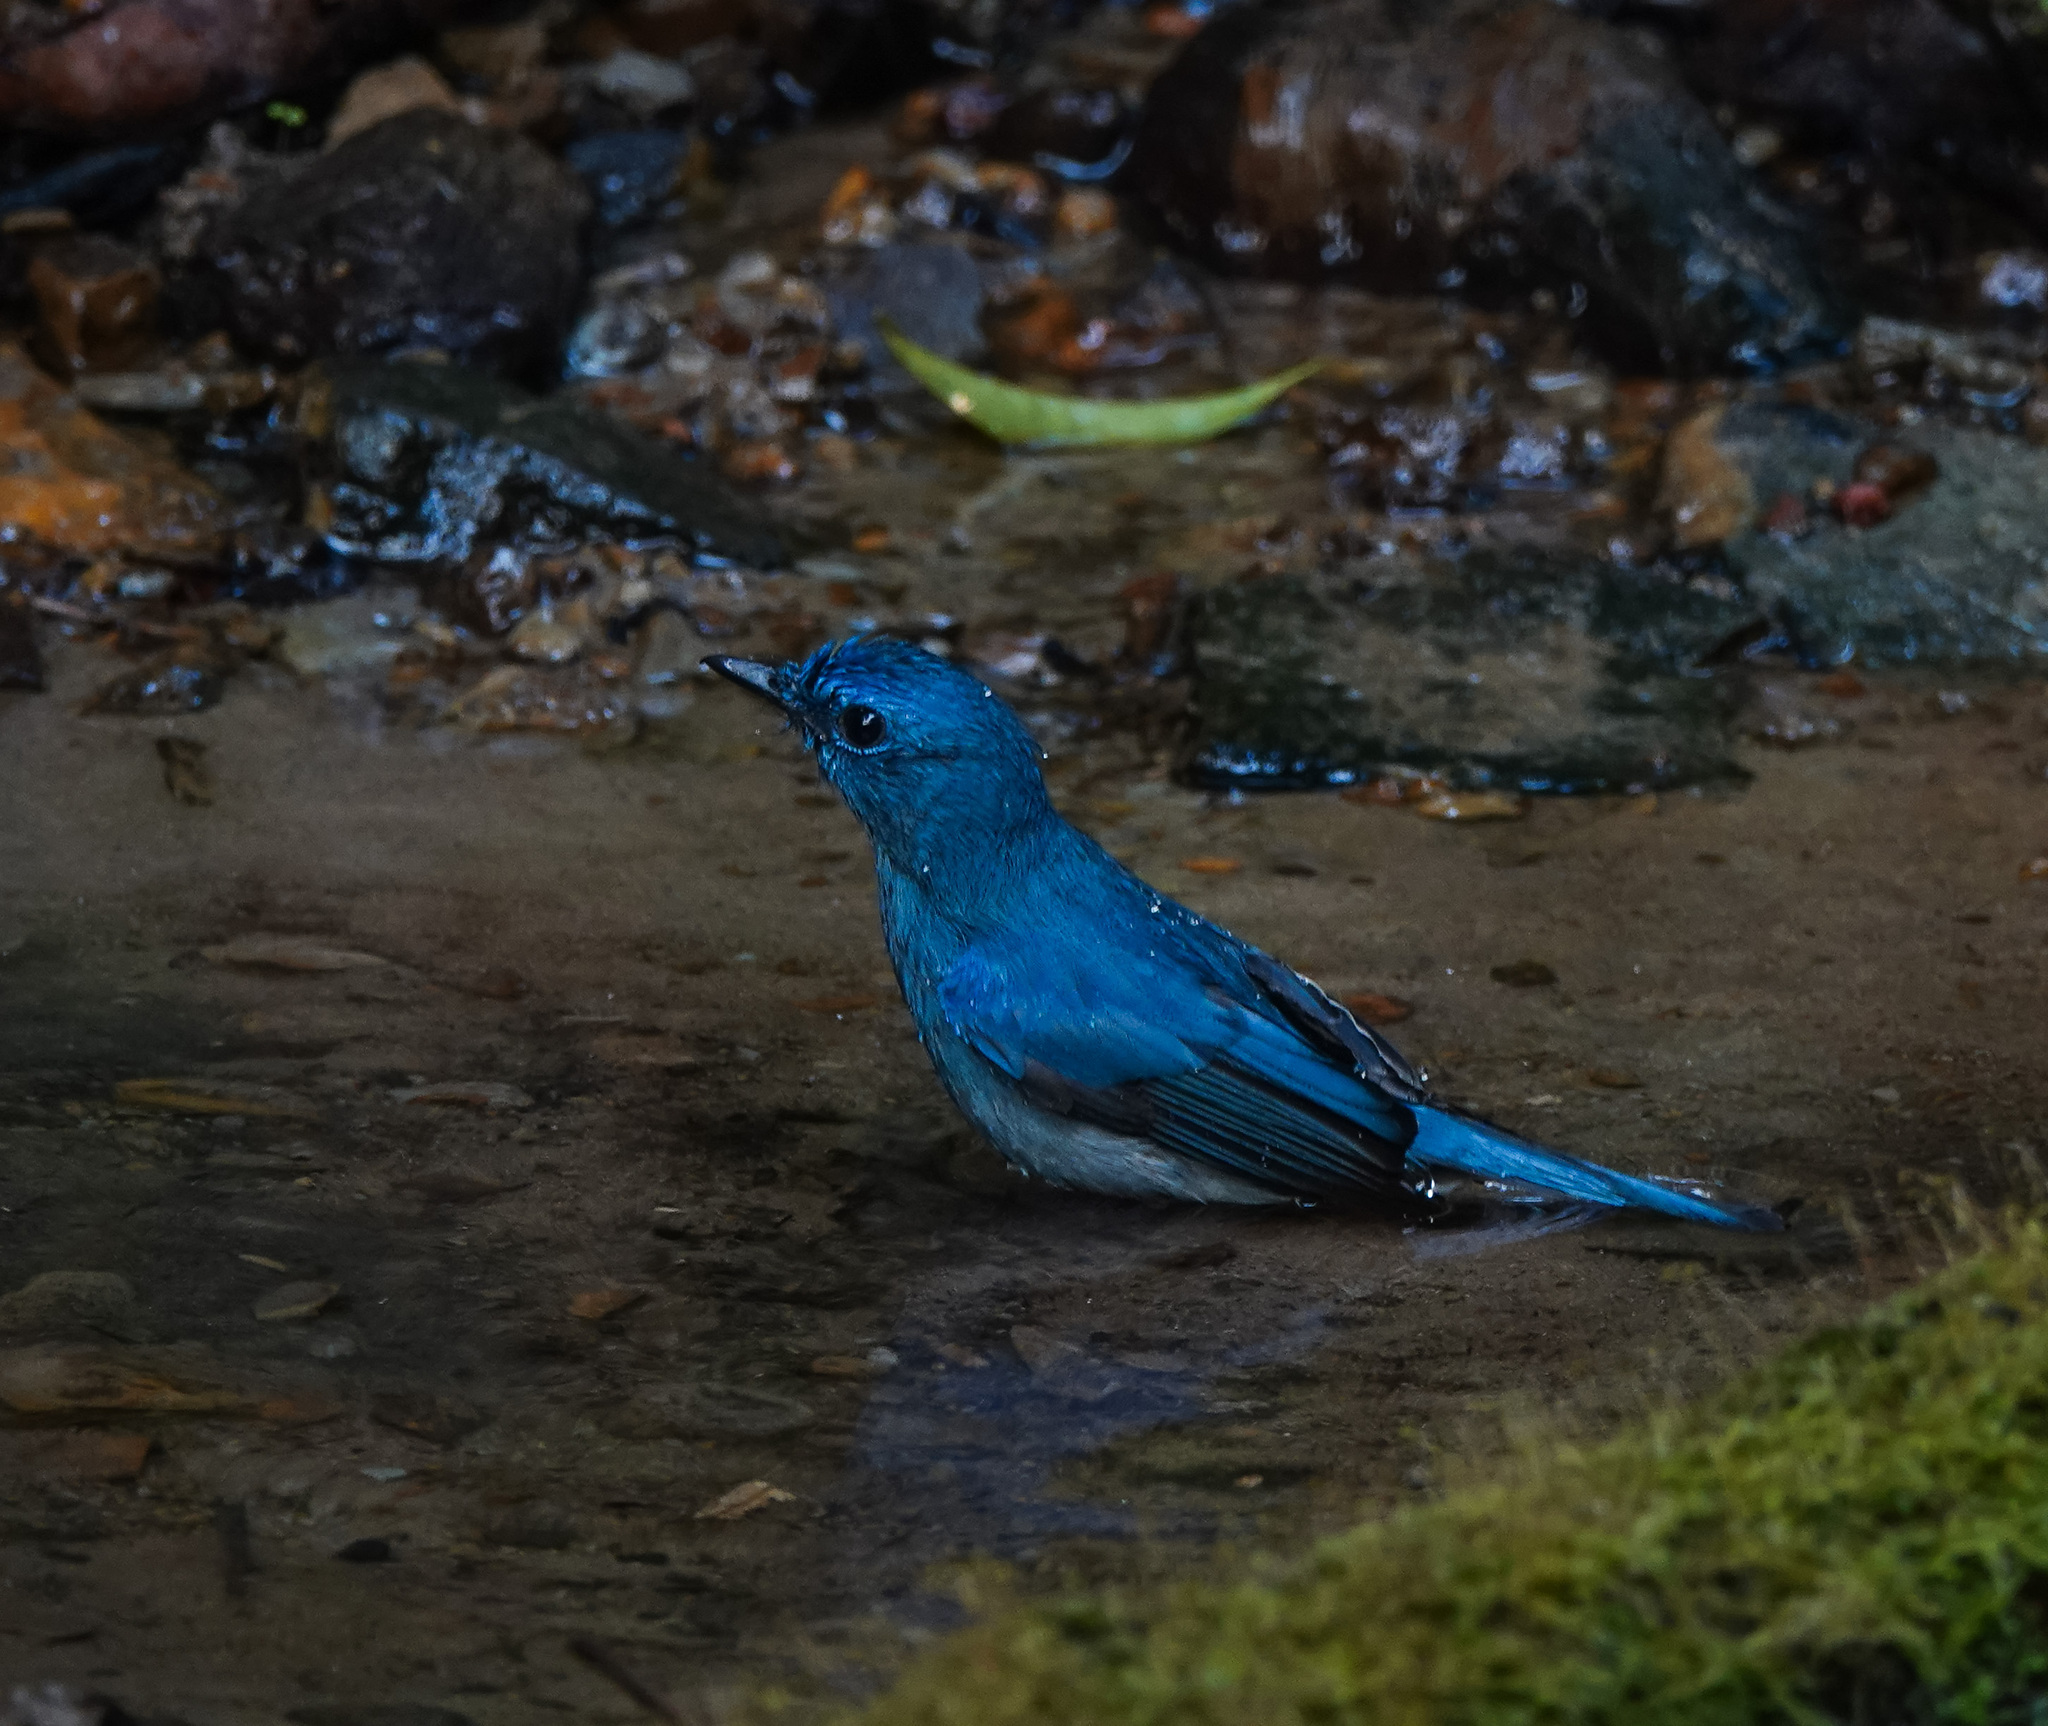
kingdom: Animalia
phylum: Chordata
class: Aves
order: Passeriformes
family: Muscicapidae
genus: Cyornis
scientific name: Cyornis unicolor
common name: Pale blue flycatcher
